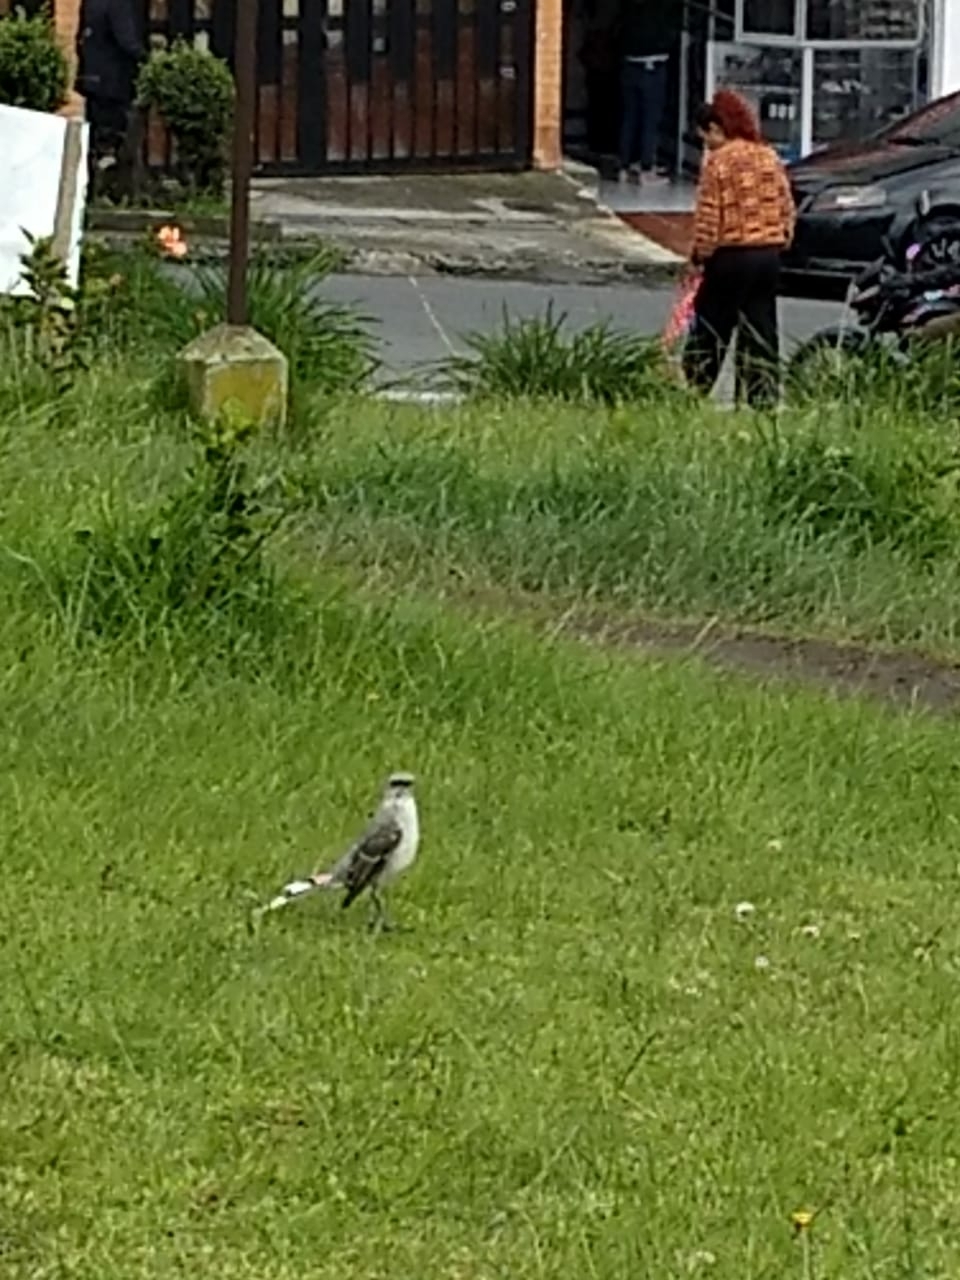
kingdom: Animalia
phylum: Chordata
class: Aves
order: Passeriformes
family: Mimidae
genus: Mimus
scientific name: Mimus gilvus
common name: Tropical mockingbird
